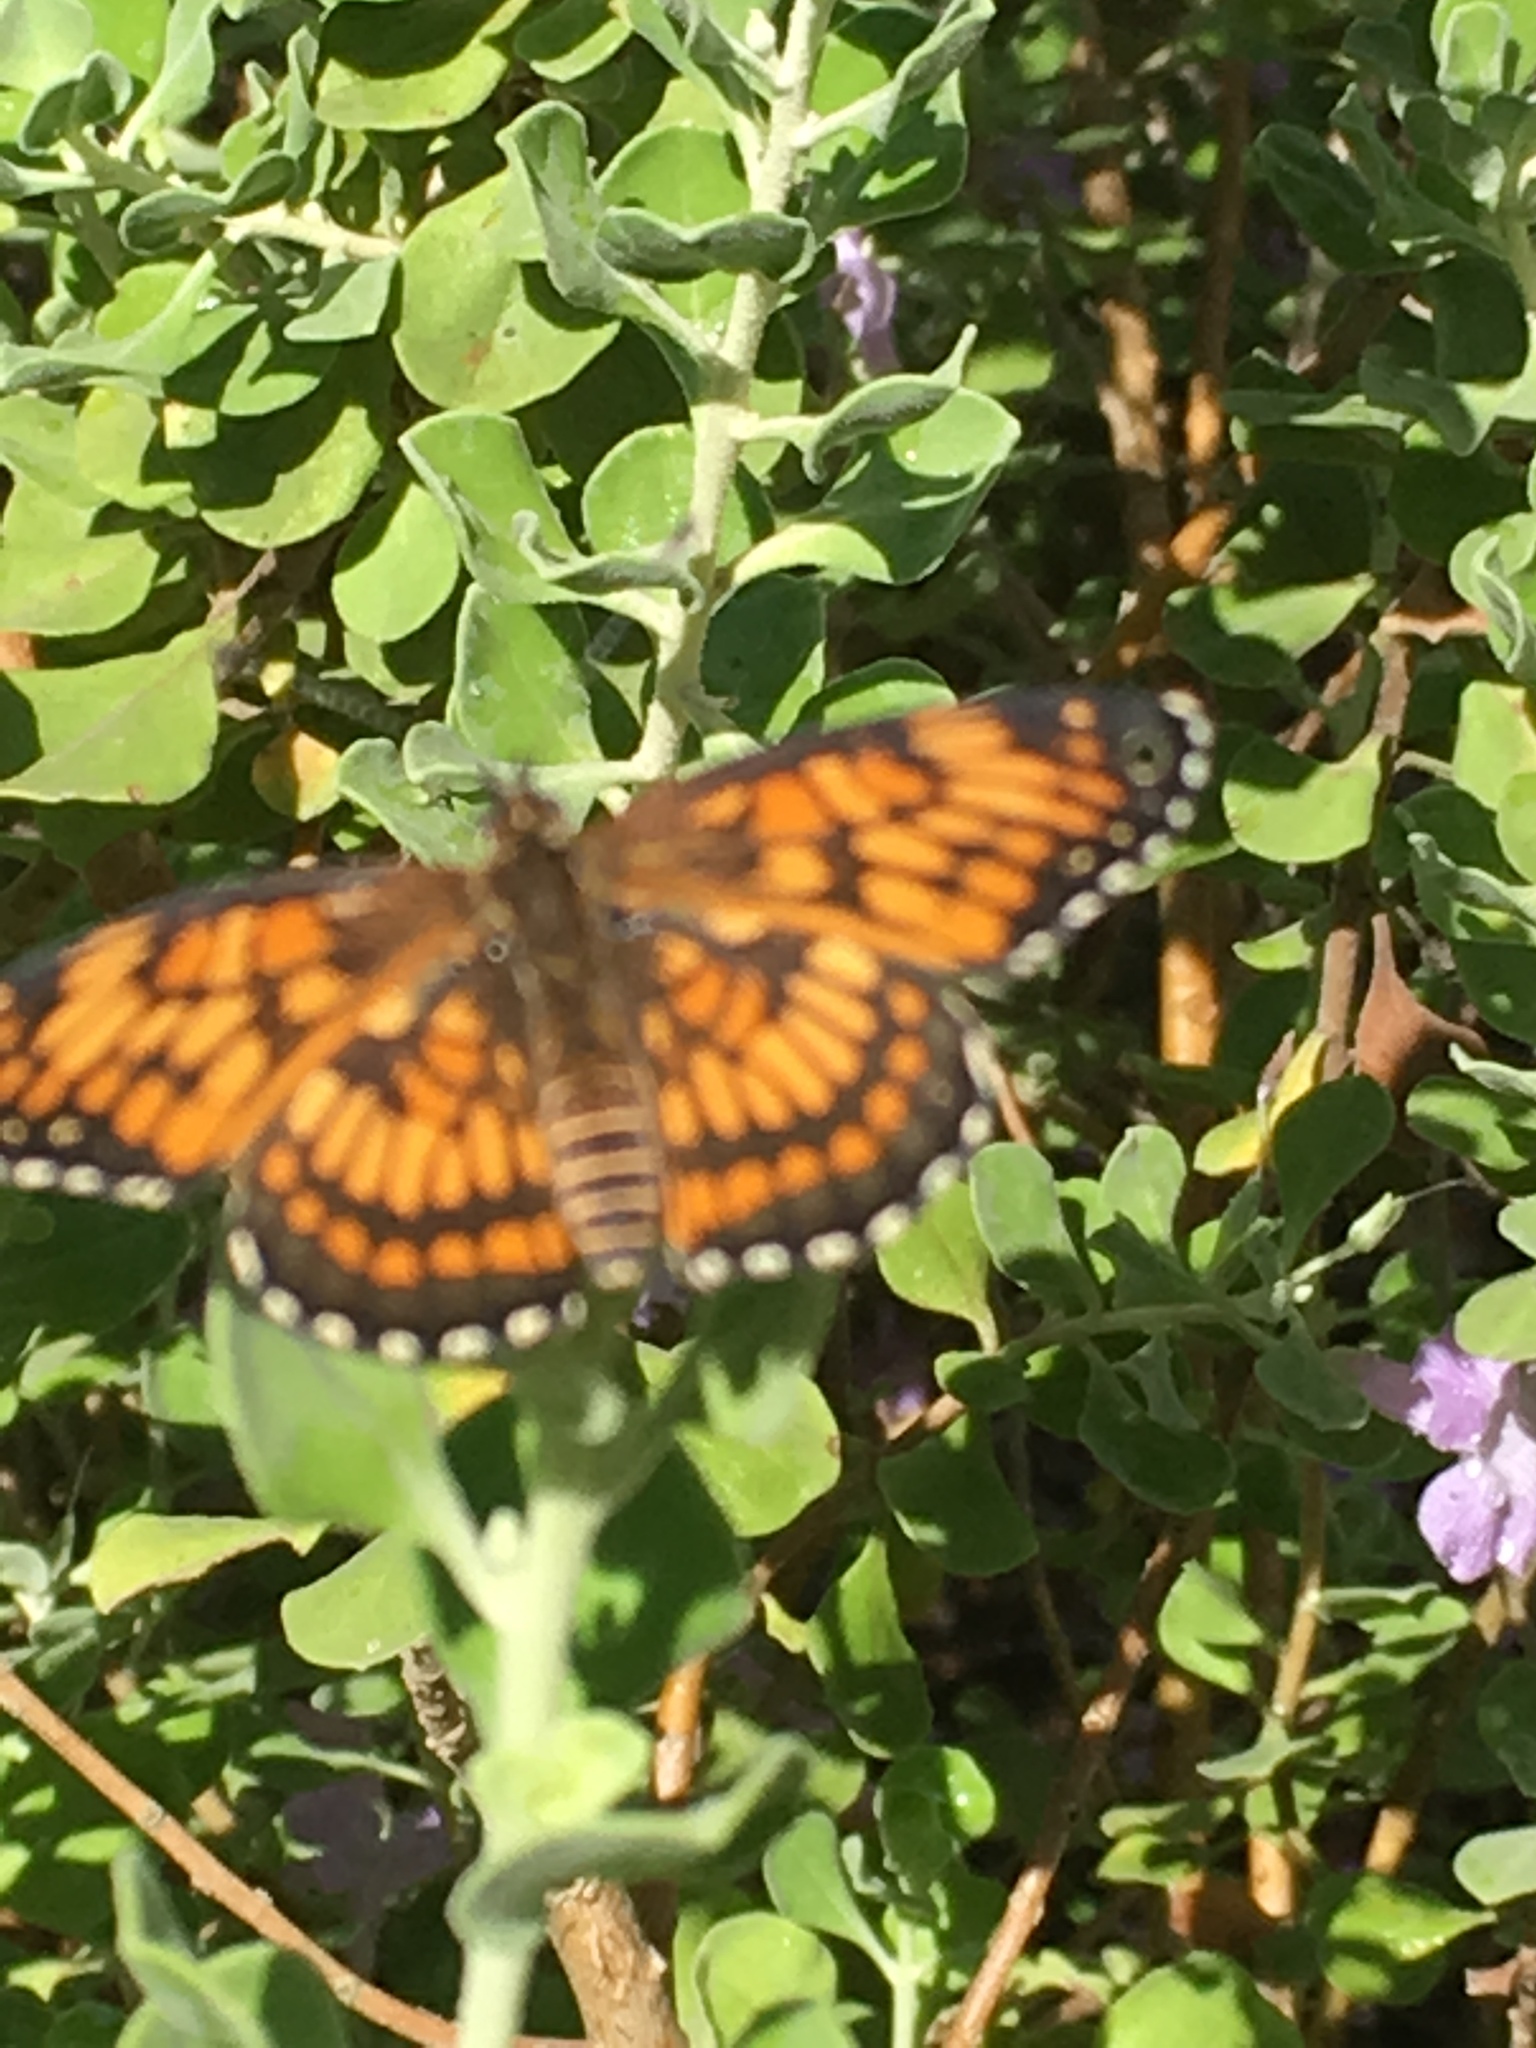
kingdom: Animalia
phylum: Arthropoda
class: Insecta
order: Lepidoptera
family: Nymphalidae
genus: Thessalia
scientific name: Thessalia theona
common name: Nymphalid moth
